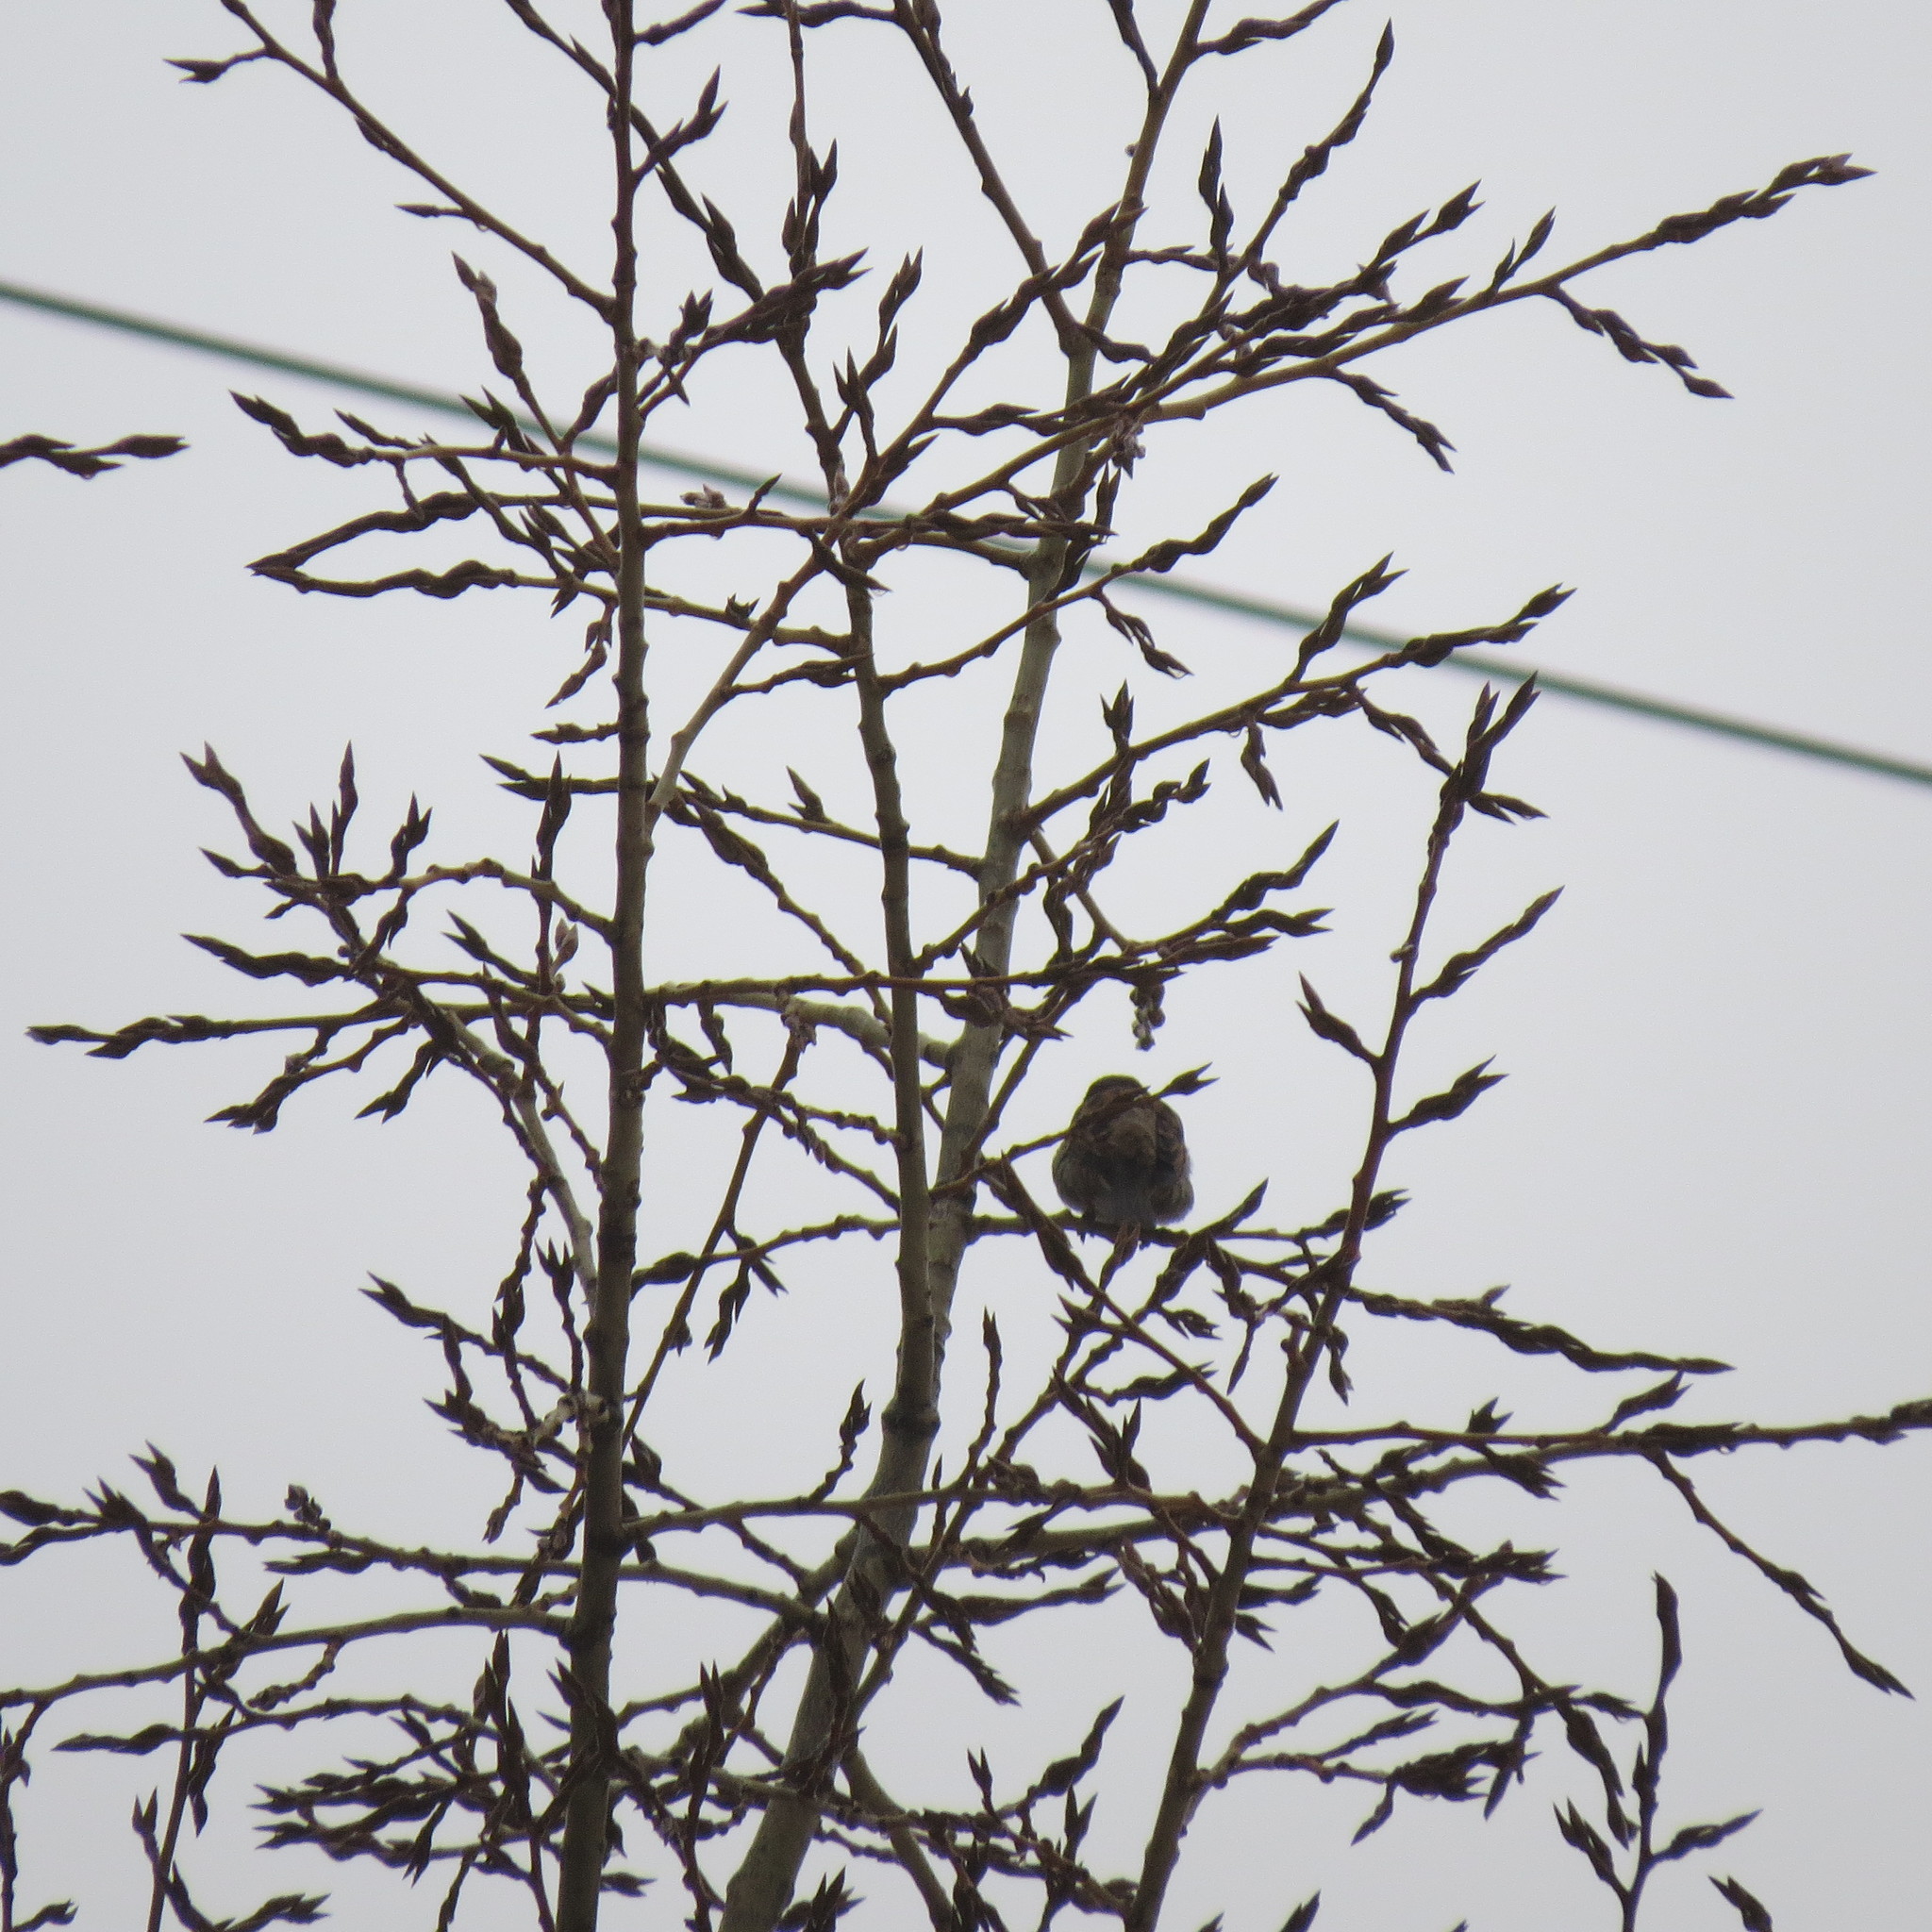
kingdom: Animalia
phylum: Chordata
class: Aves
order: Passeriformes
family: Passeridae
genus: Passer
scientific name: Passer domesticus
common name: House sparrow
